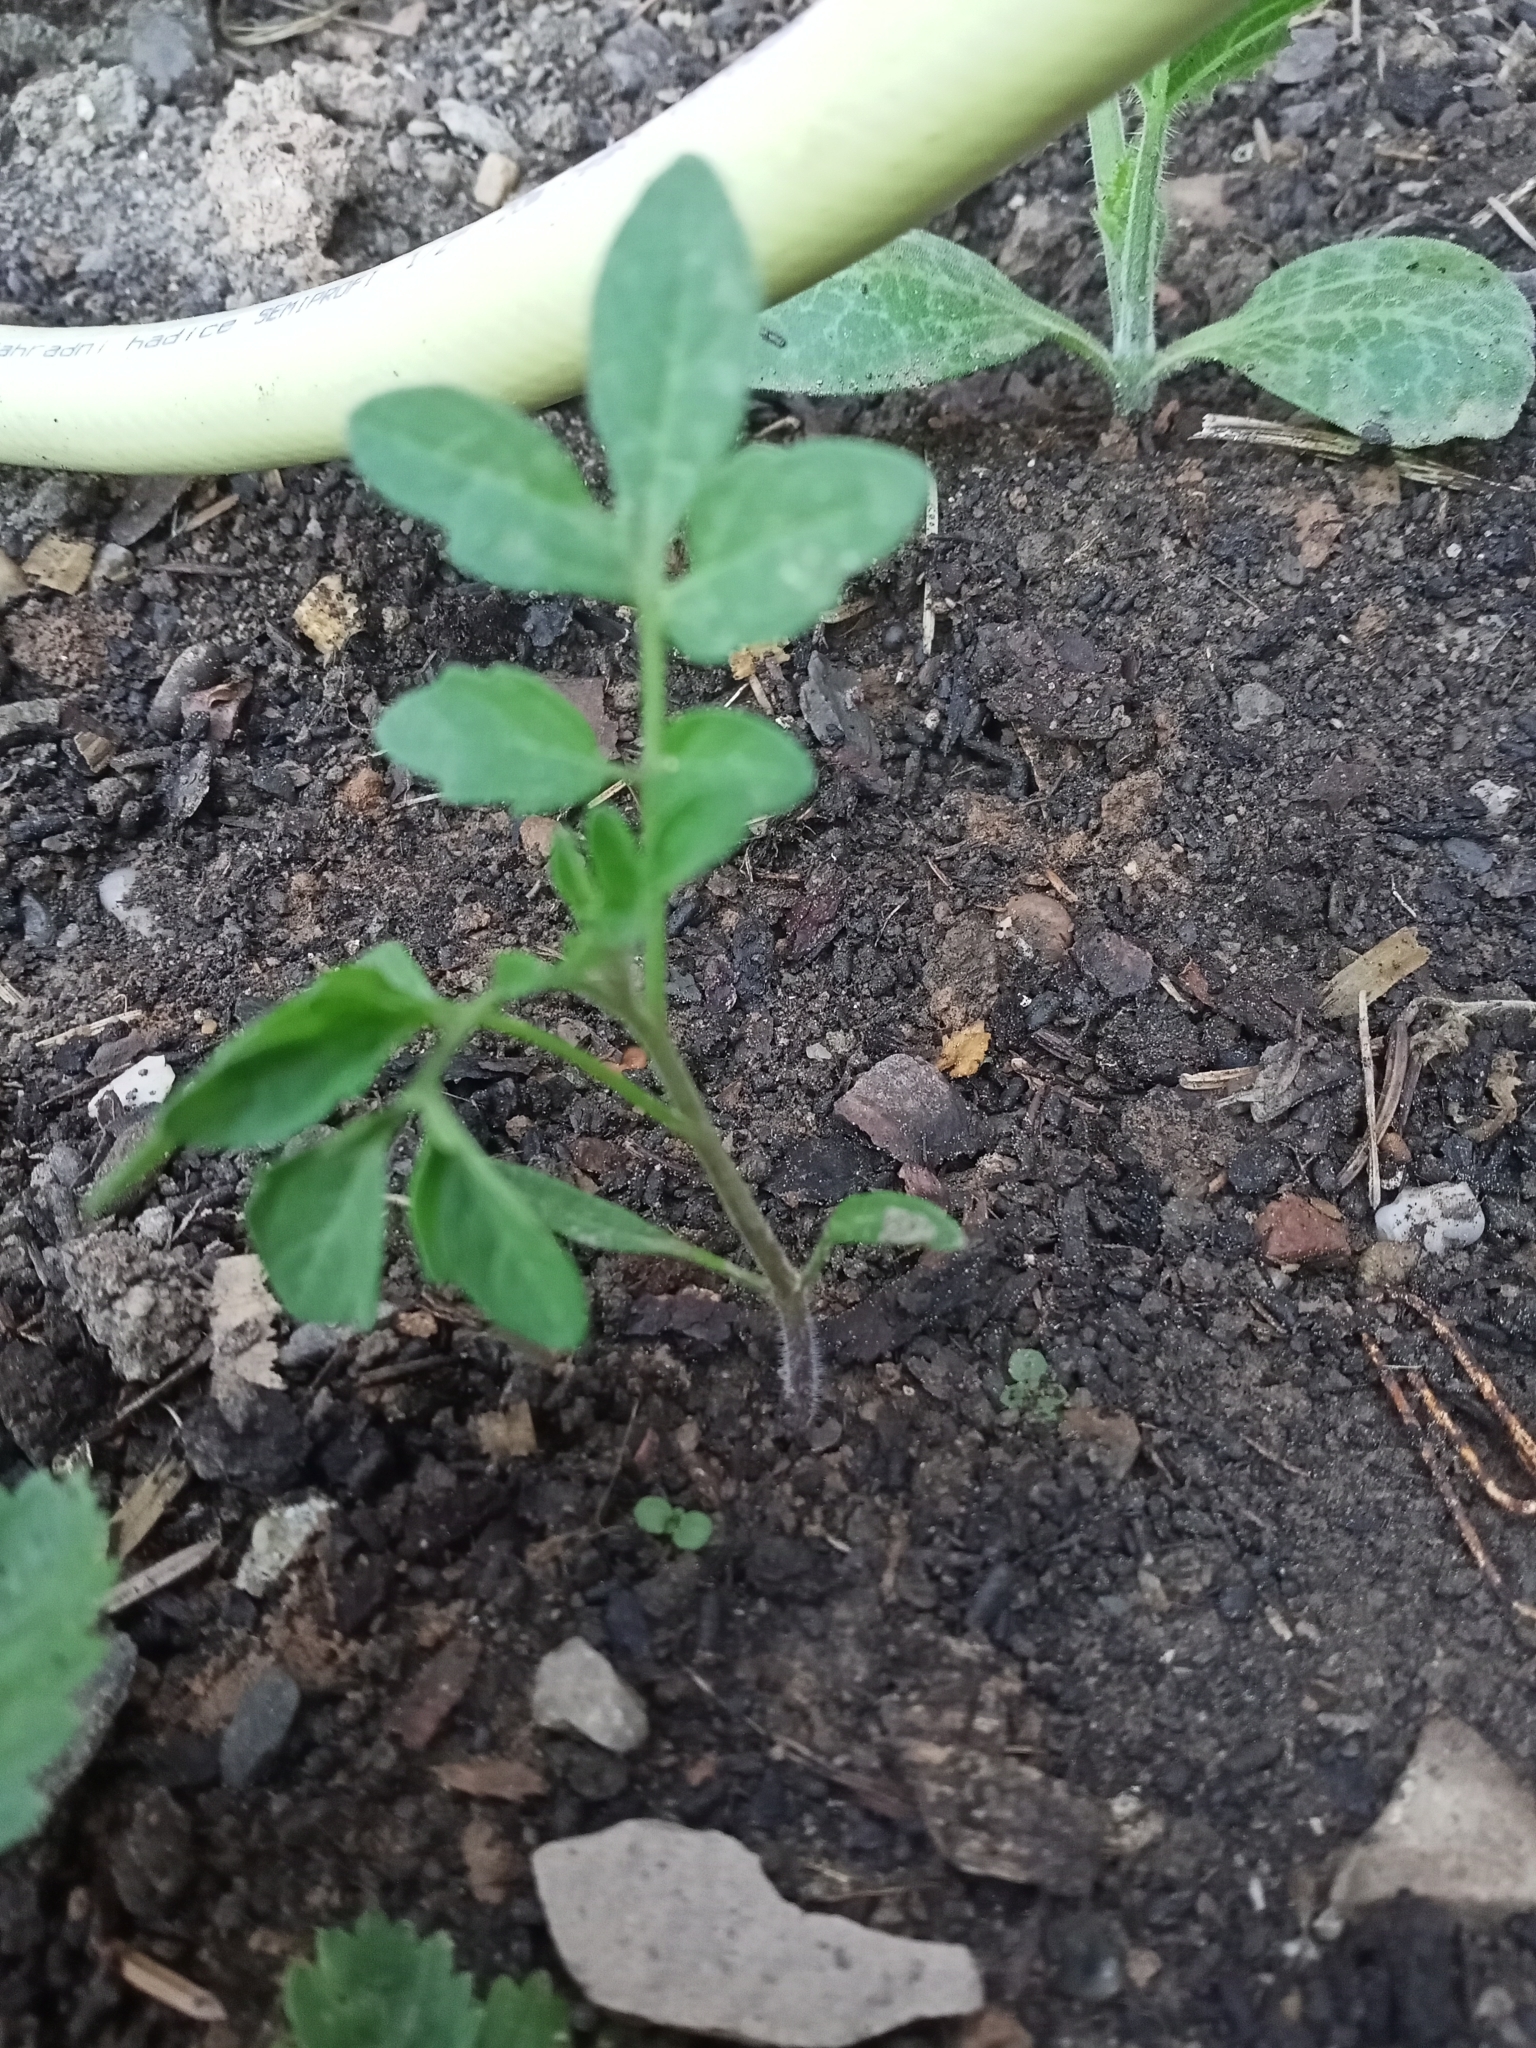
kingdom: Plantae
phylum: Tracheophyta
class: Magnoliopsida
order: Solanales
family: Solanaceae
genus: Solanum
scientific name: Solanum lycopersicum
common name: Garden tomato
